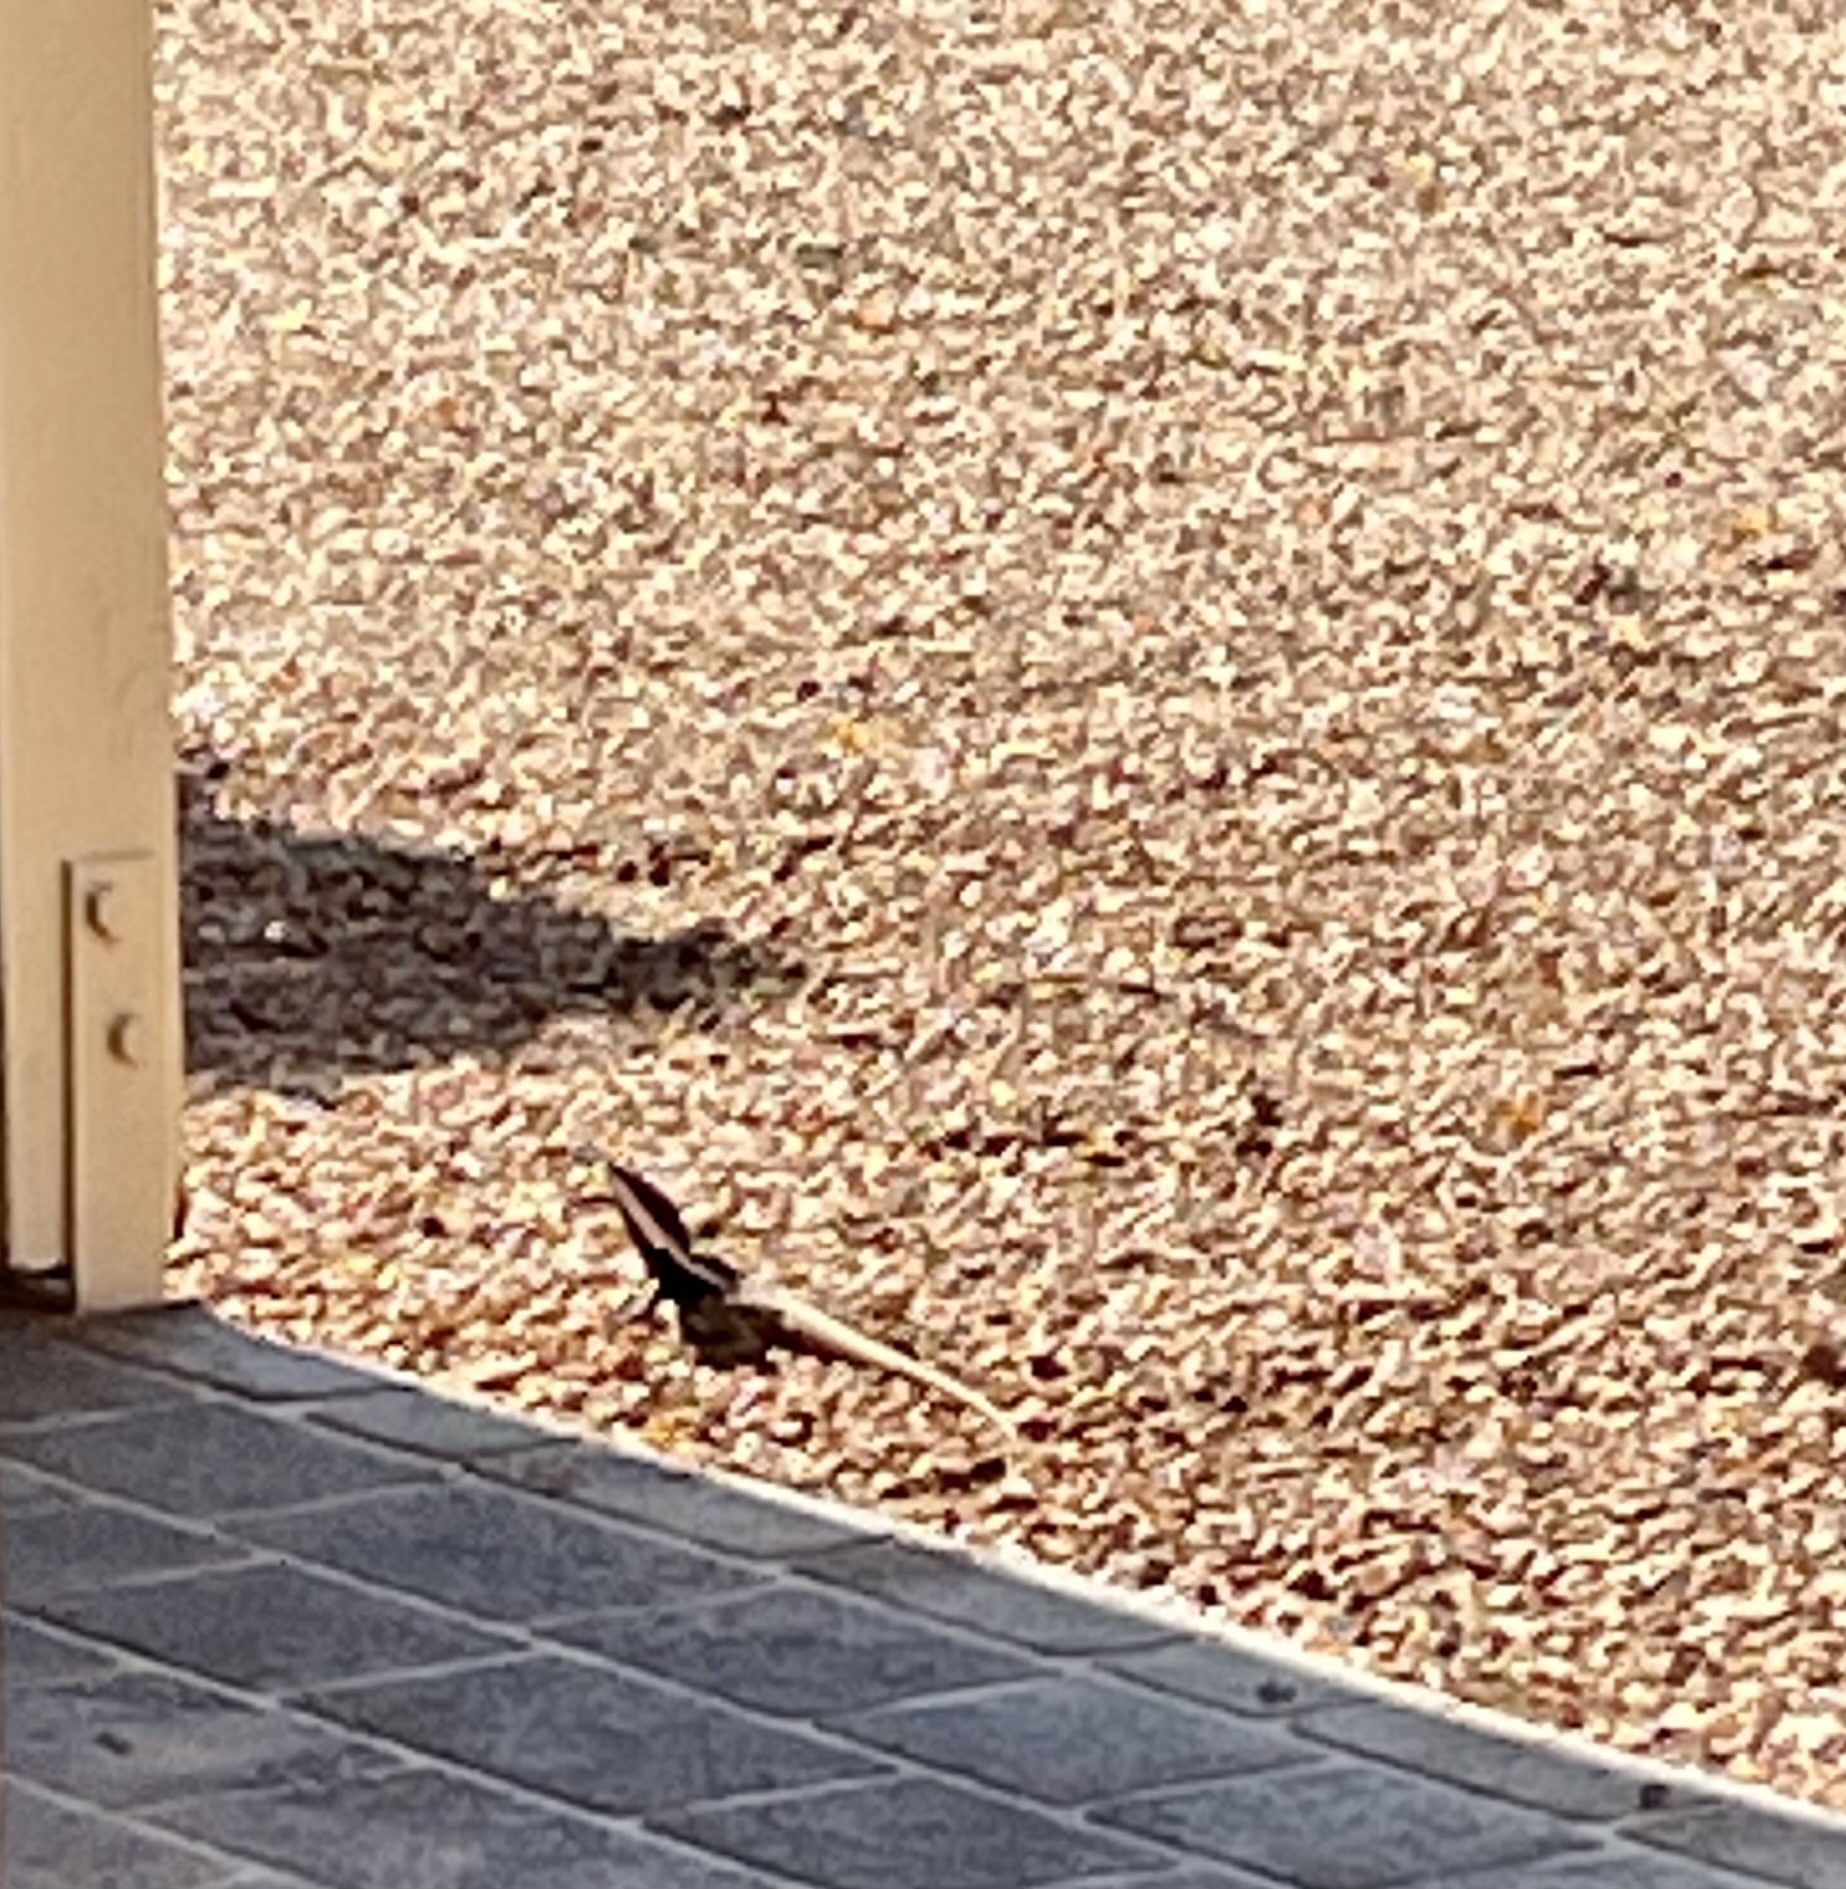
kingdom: Animalia
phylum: Chordata
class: Squamata
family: Agamidae
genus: Lophognathus
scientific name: Lophognathus horneri
